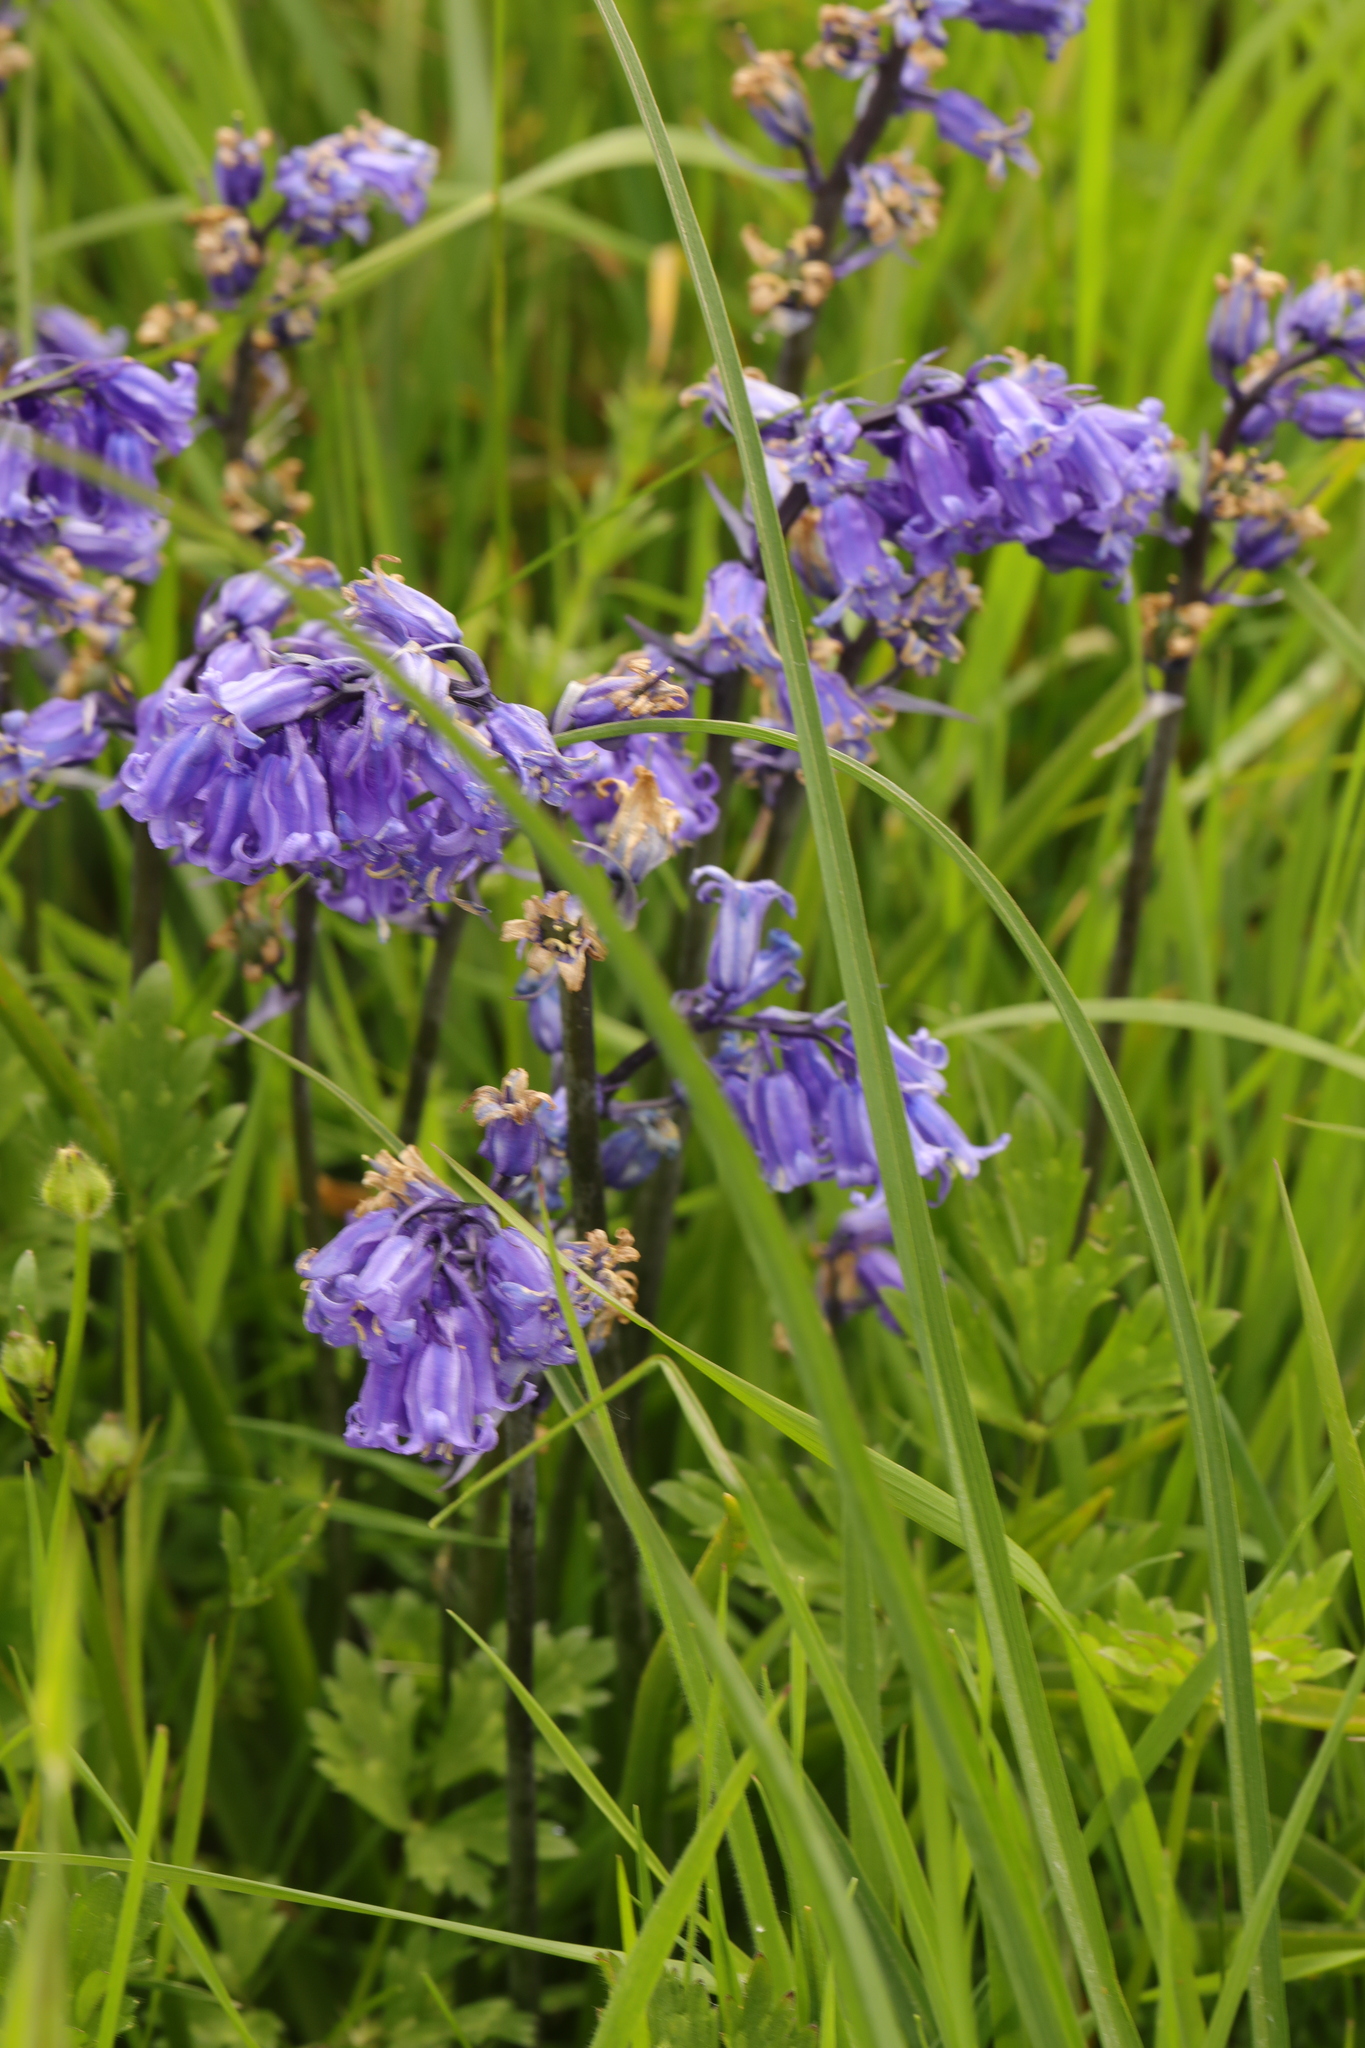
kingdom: Plantae
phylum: Tracheophyta
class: Liliopsida
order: Asparagales
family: Asparagaceae
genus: Hyacinthoides
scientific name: Hyacinthoides non-scripta
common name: Bluebell
